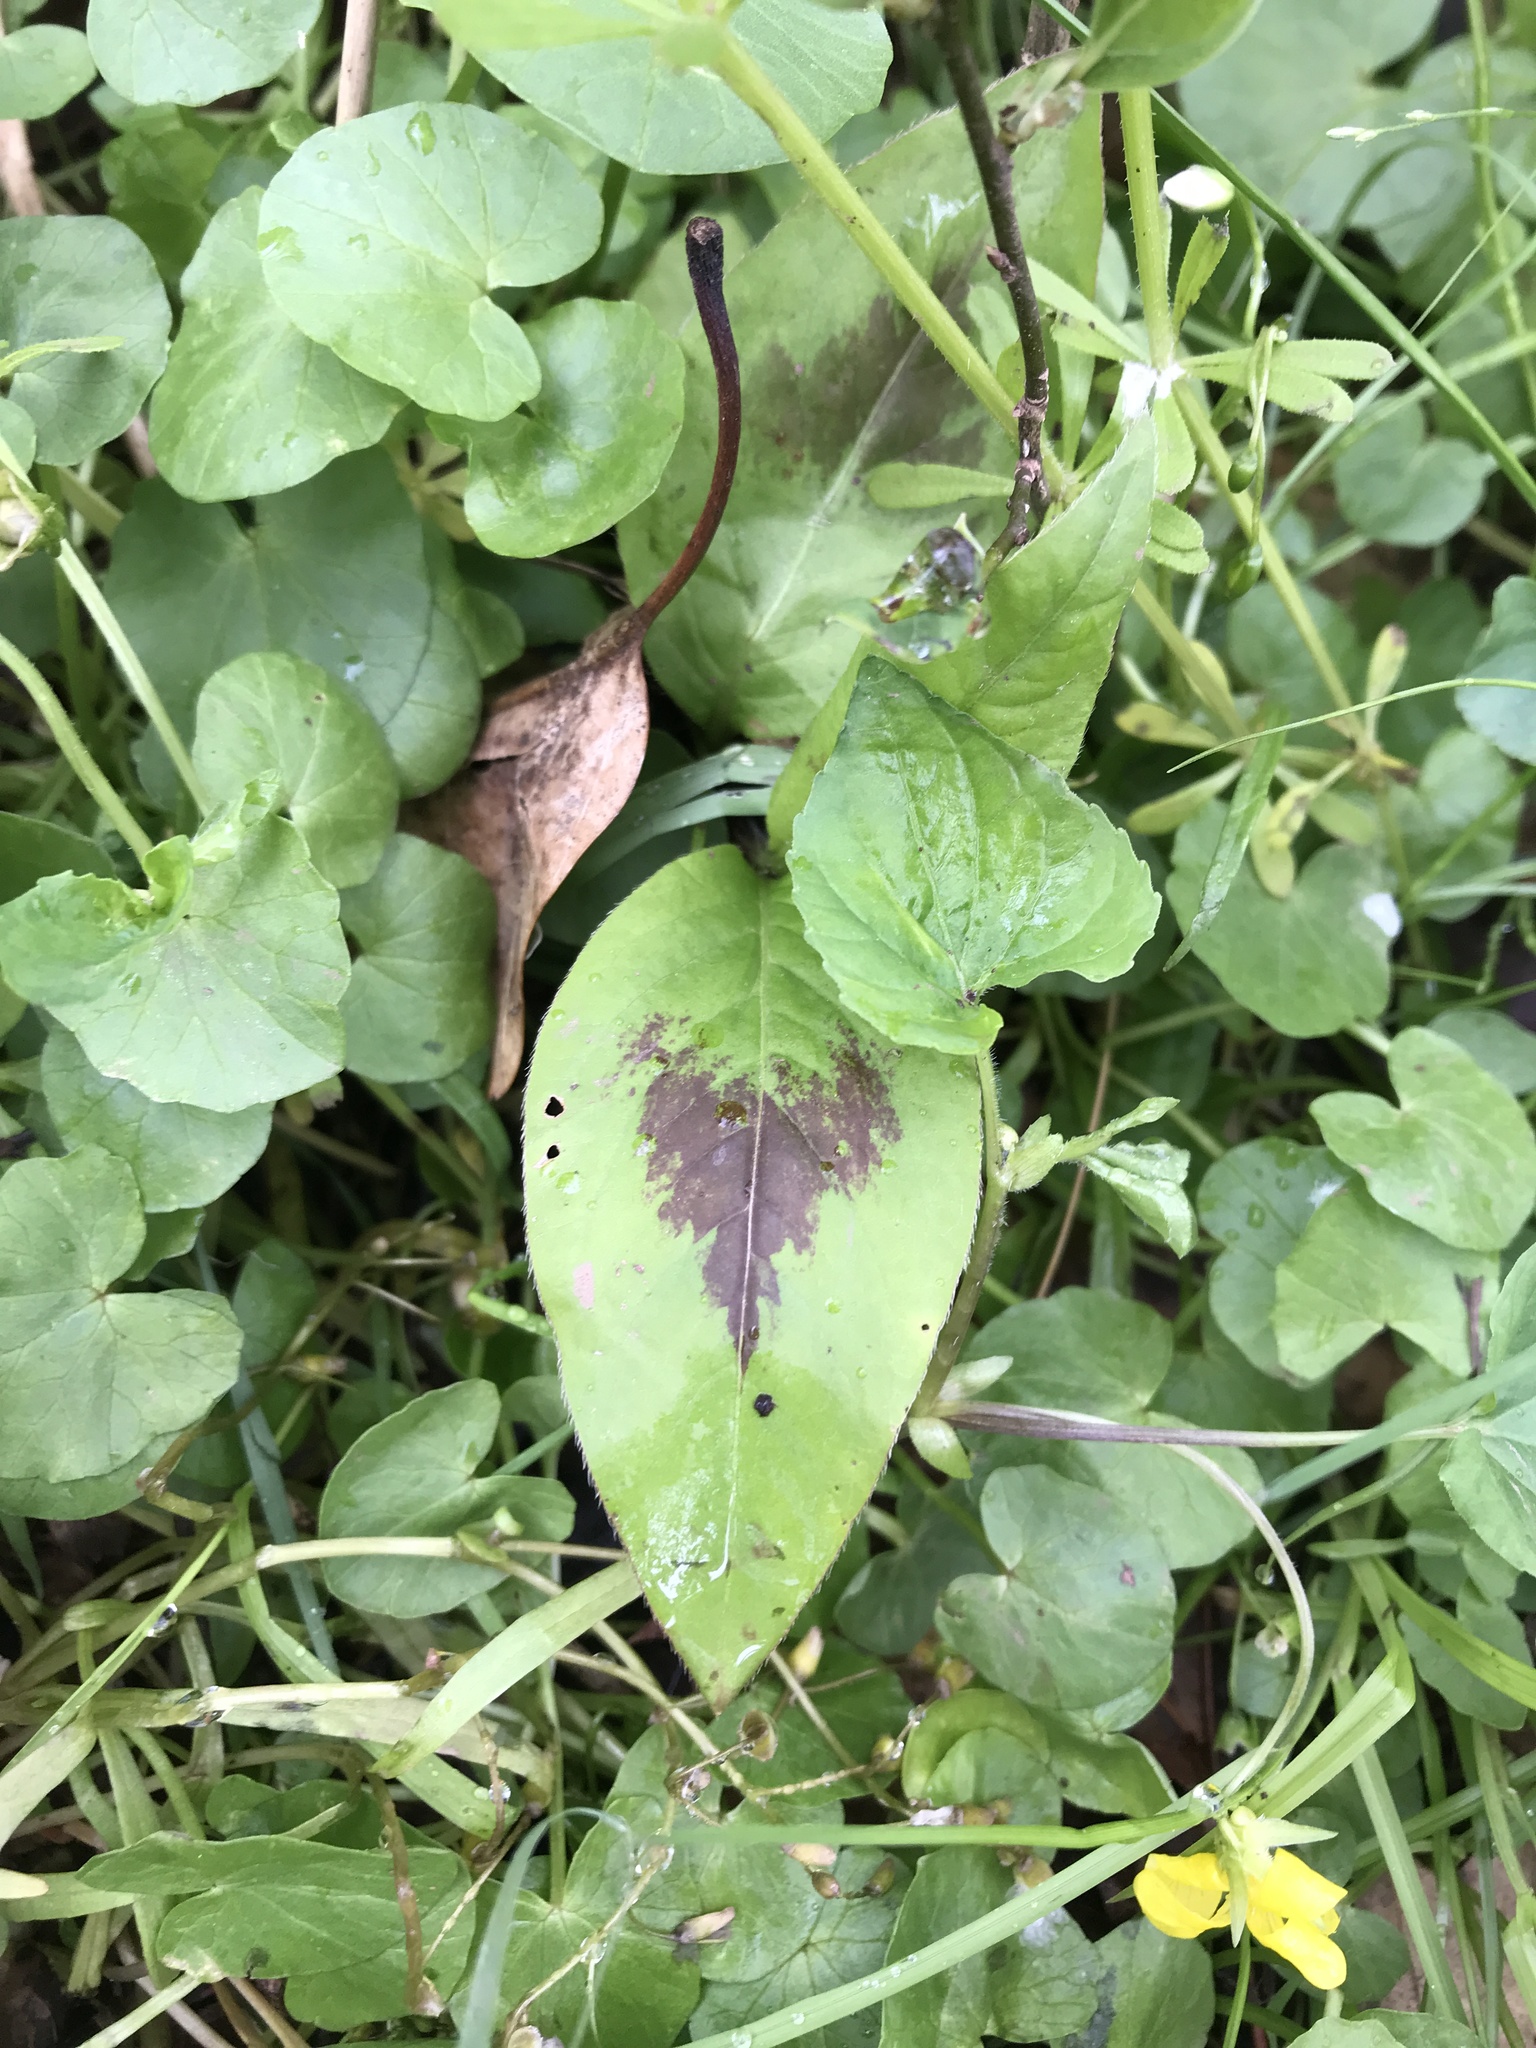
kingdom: Plantae
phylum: Tracheophyta
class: Magnoliopsida
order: Caryophyllales
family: Polygonaceae
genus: Persicaria
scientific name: Persicaria virginiana
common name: Jumpseed
